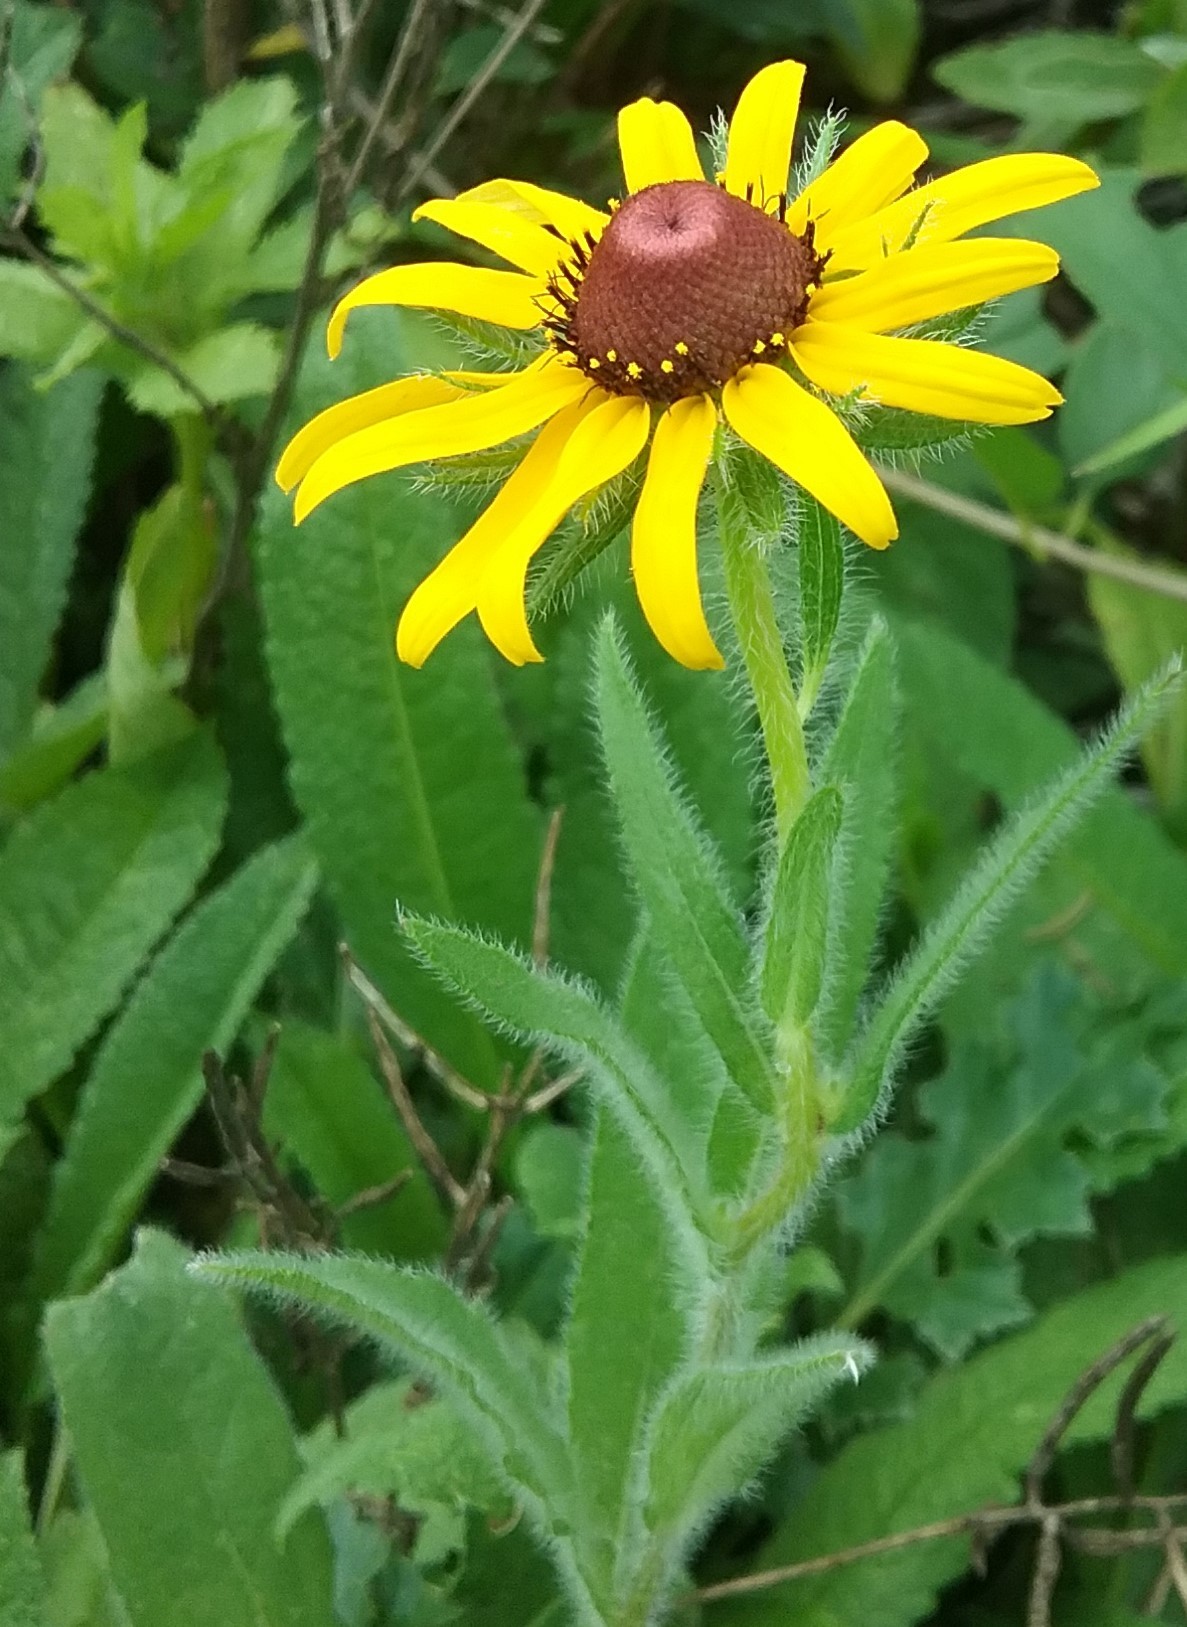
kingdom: Plantae
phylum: Tracheophyta
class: Magnoliopsida
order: Asterales
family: Asteraceae
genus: Rudbeckia
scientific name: Rudbeckia hirta
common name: Black-eyed-susan
